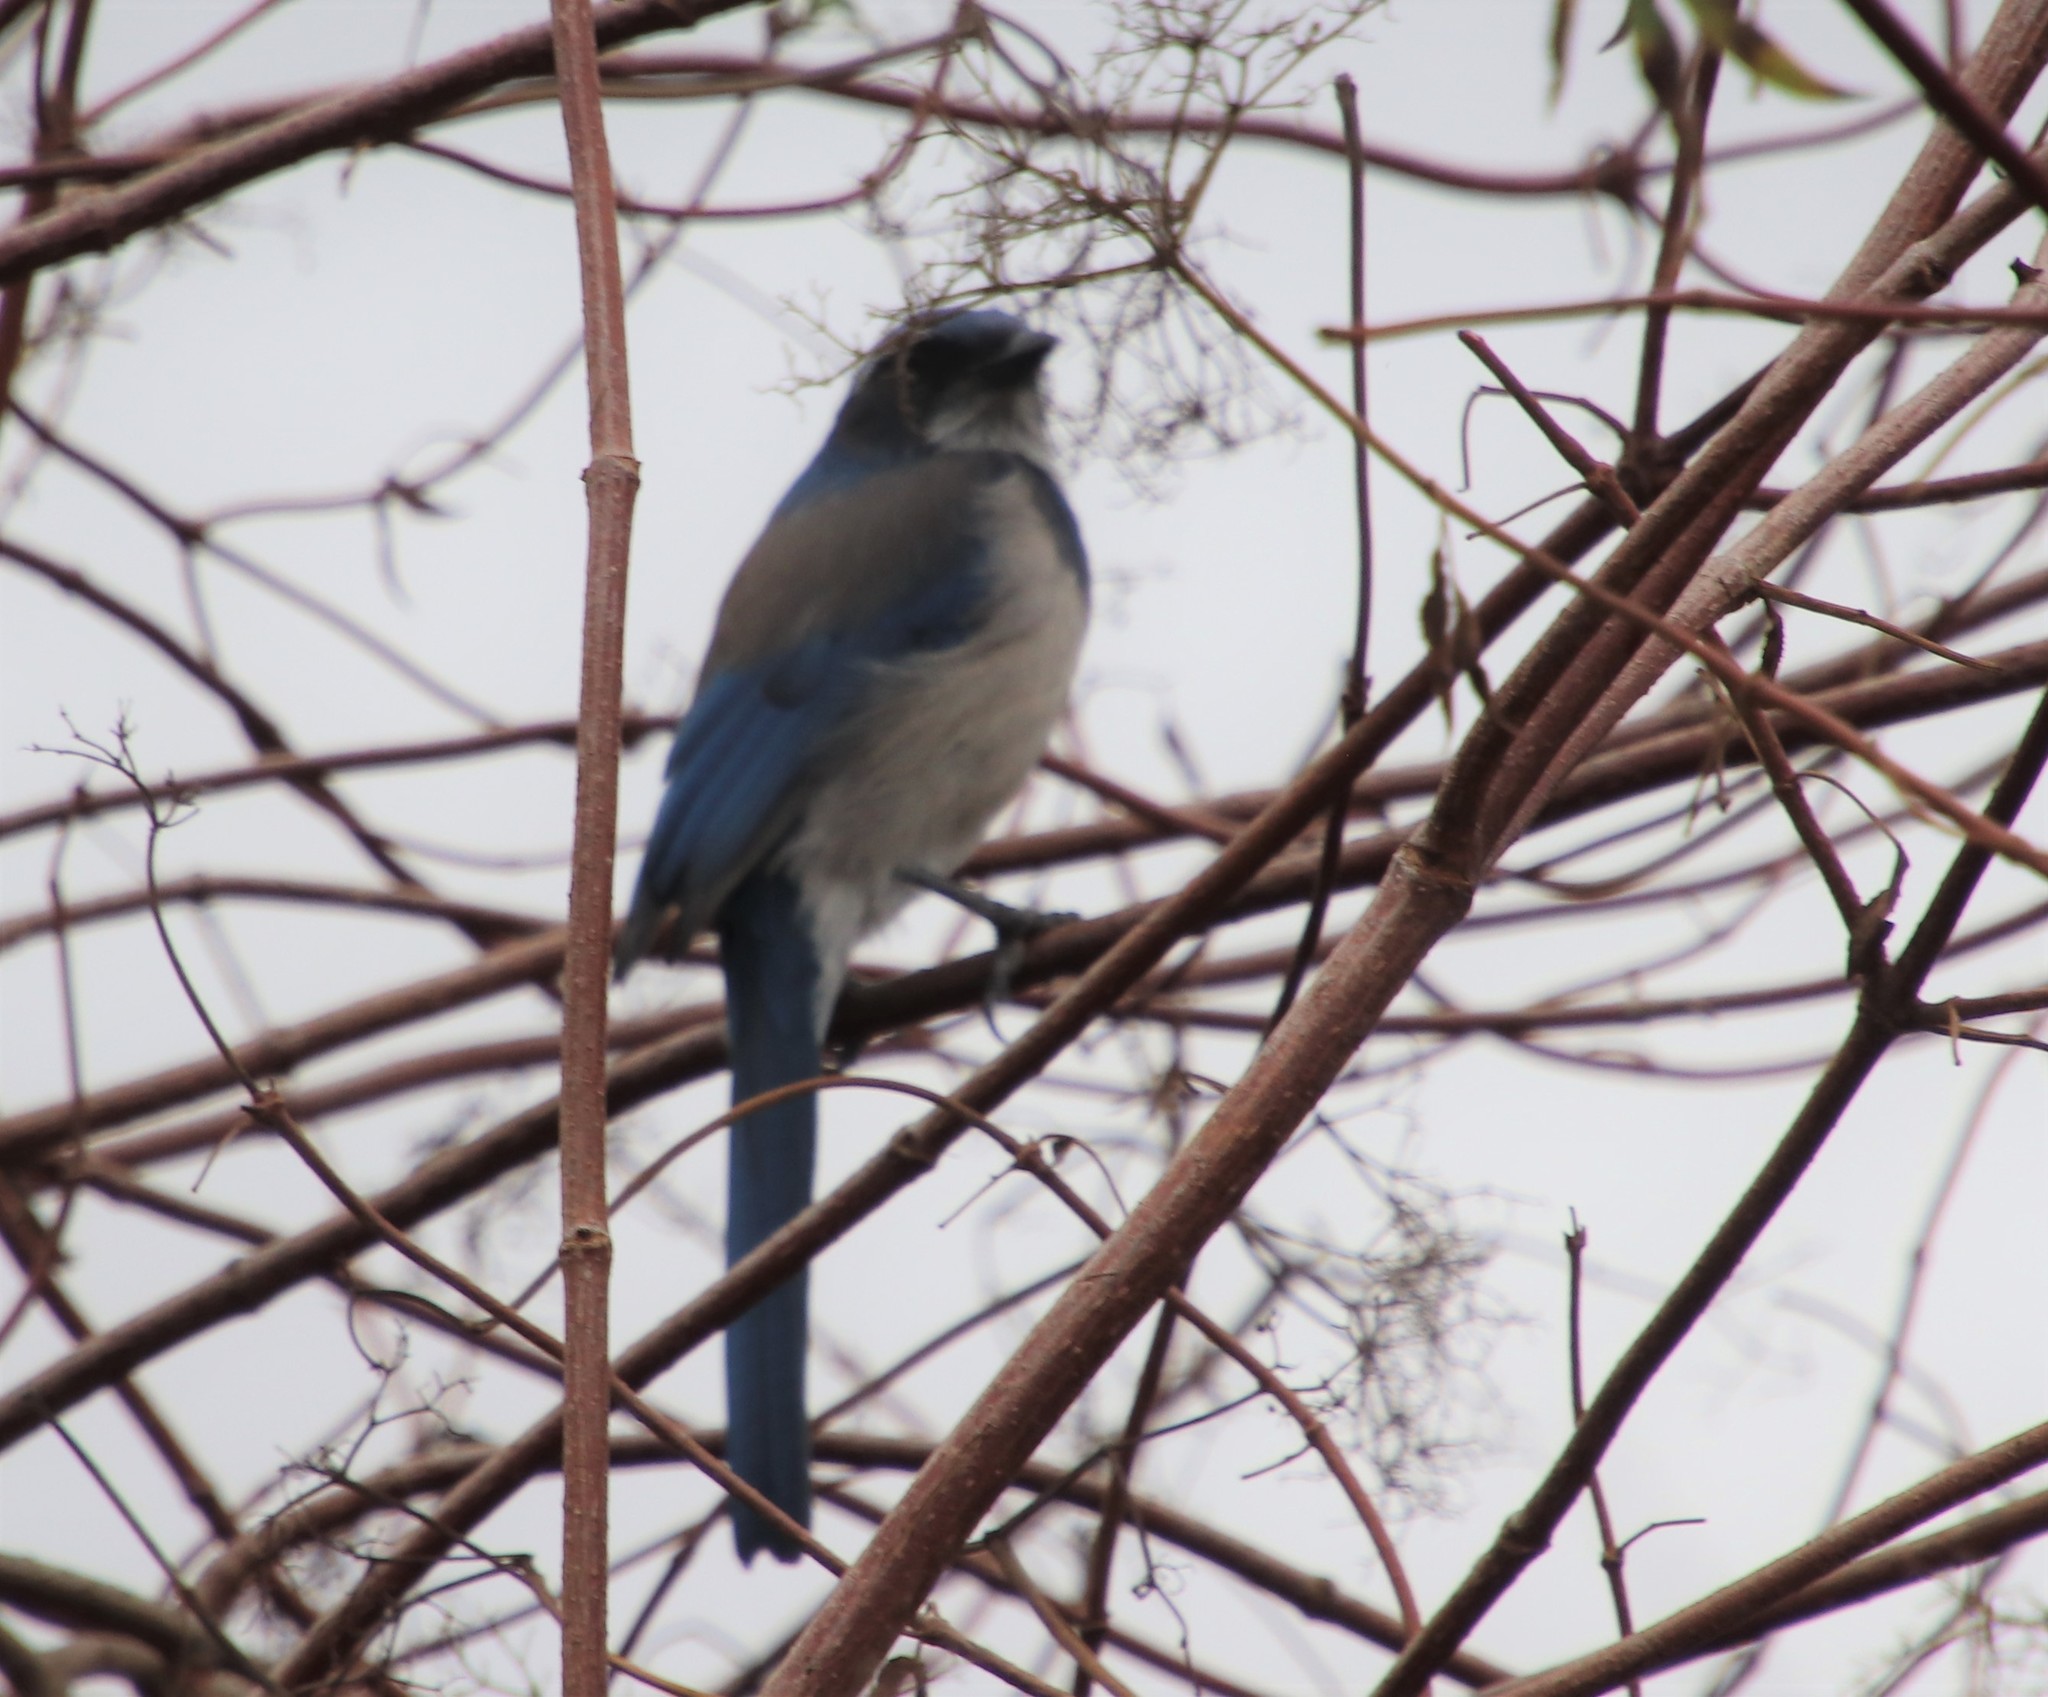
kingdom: Animalia
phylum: Chordata
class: Aves
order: Passeriformes
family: Corvidae
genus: Aphelocoma
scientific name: Aphelocoma californica
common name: California scrub-jay
